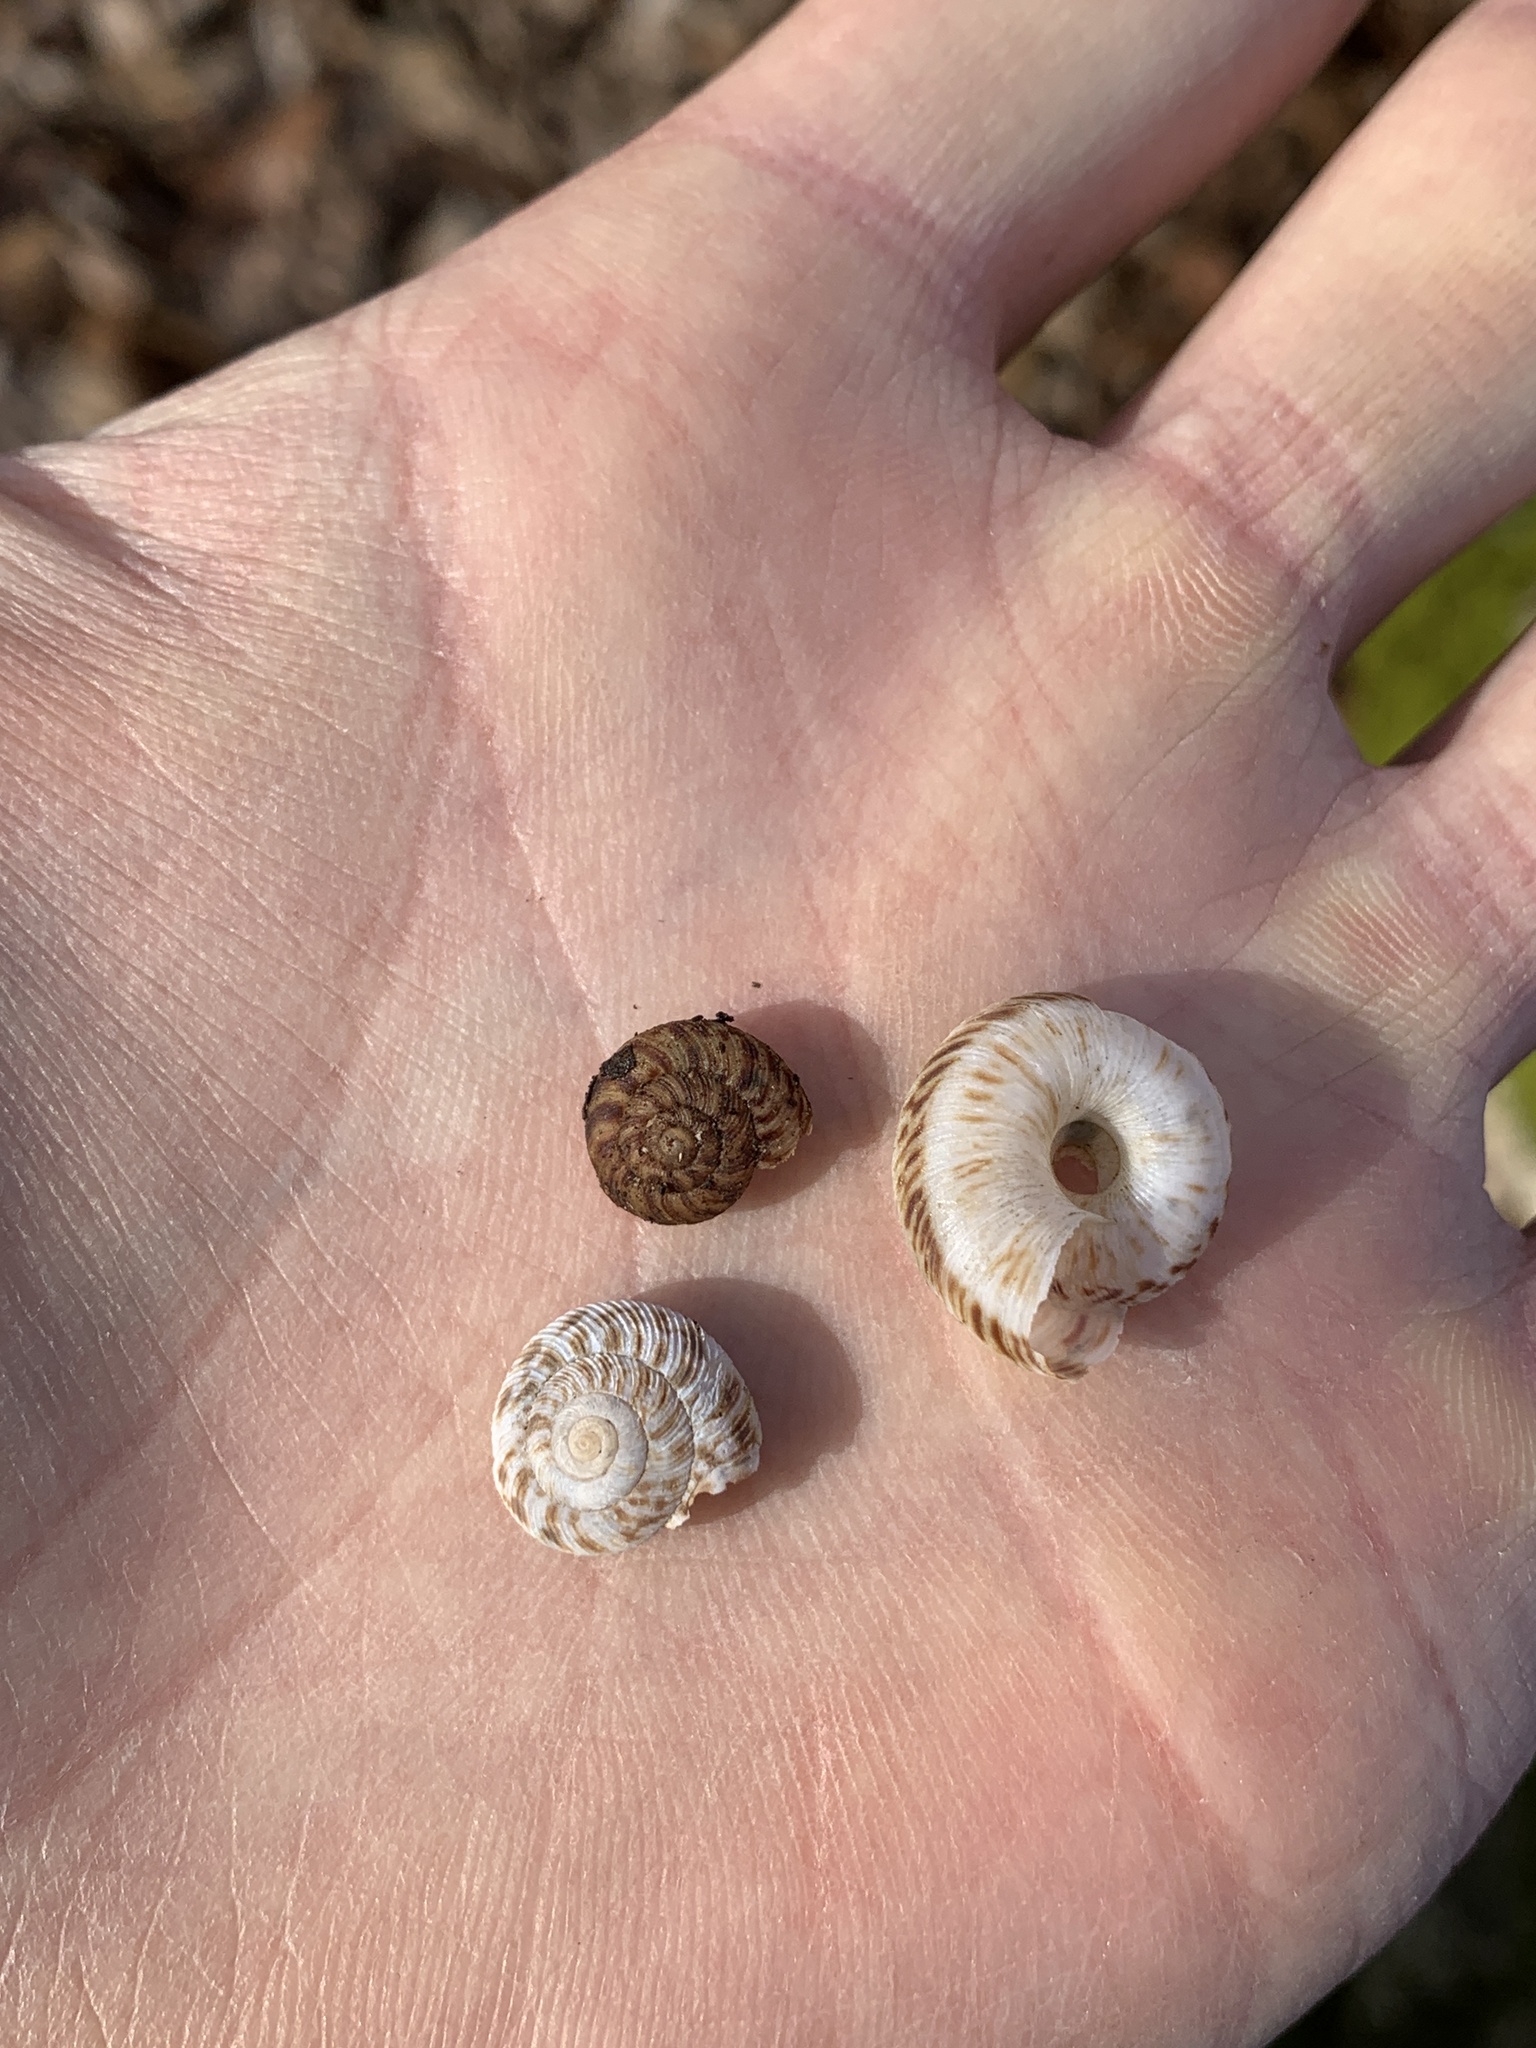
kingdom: Animalia
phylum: Mollusca
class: Gastropoda
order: Stylommatophora
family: Discidae
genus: Anguispira
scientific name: Anguispira alternata
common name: Flamed tigersnail
